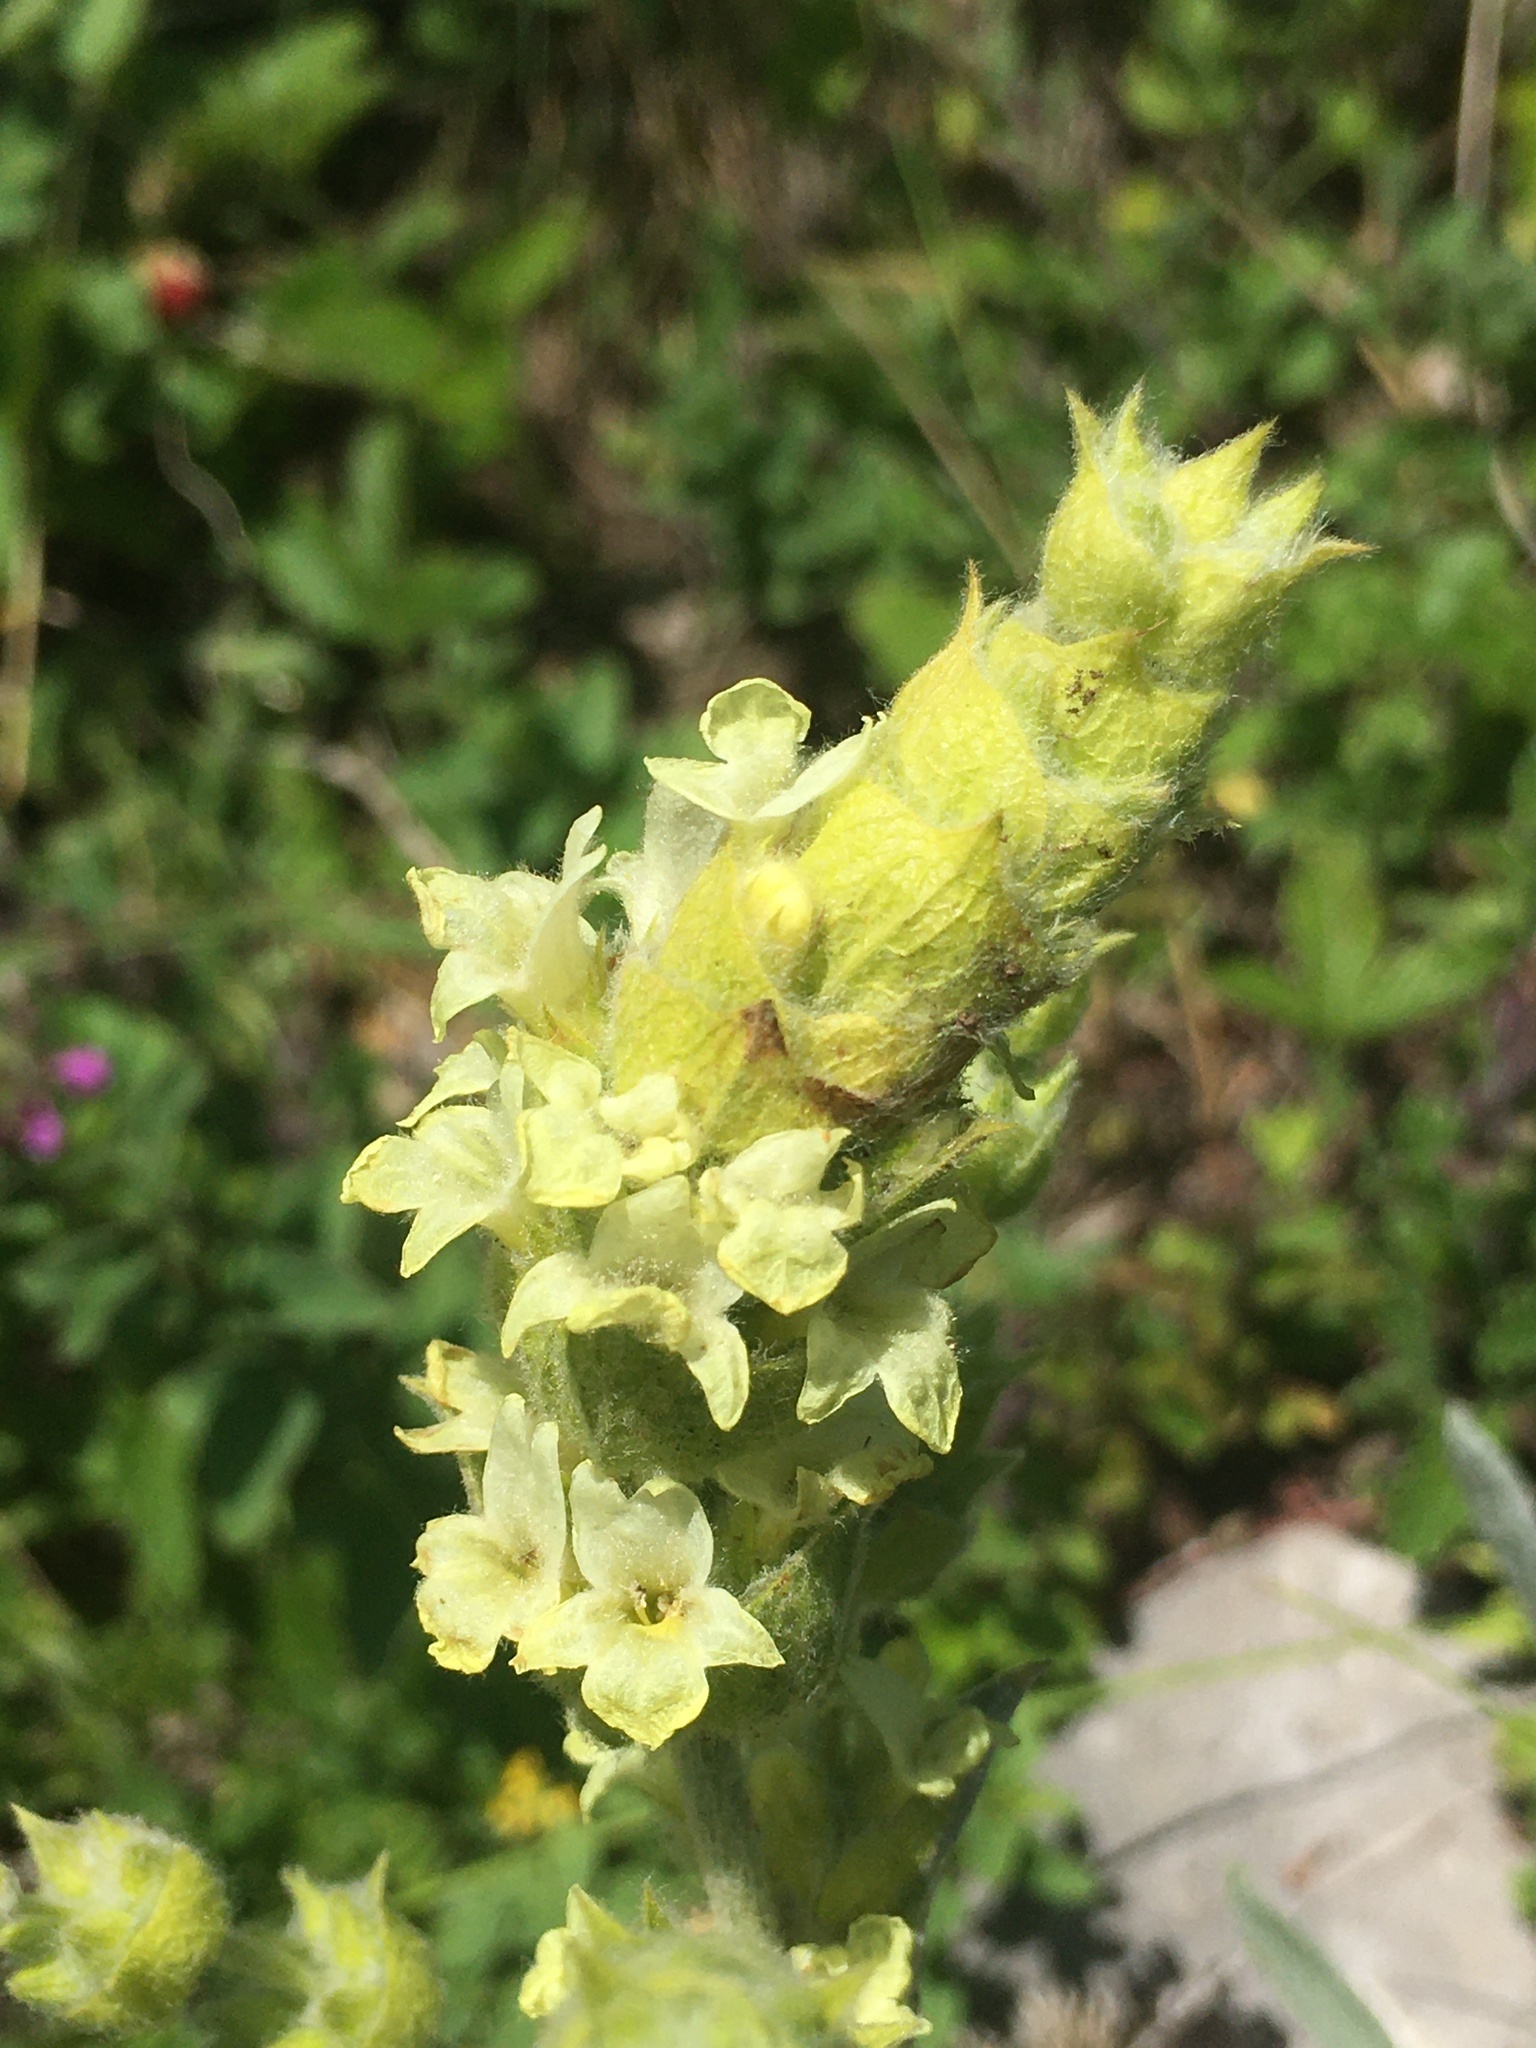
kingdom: Plantae
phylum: Tracheophyta
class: Magnoliopsida
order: Lamiales
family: Lamiaceae
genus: Sideritis
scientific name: Sideritis catillaris
